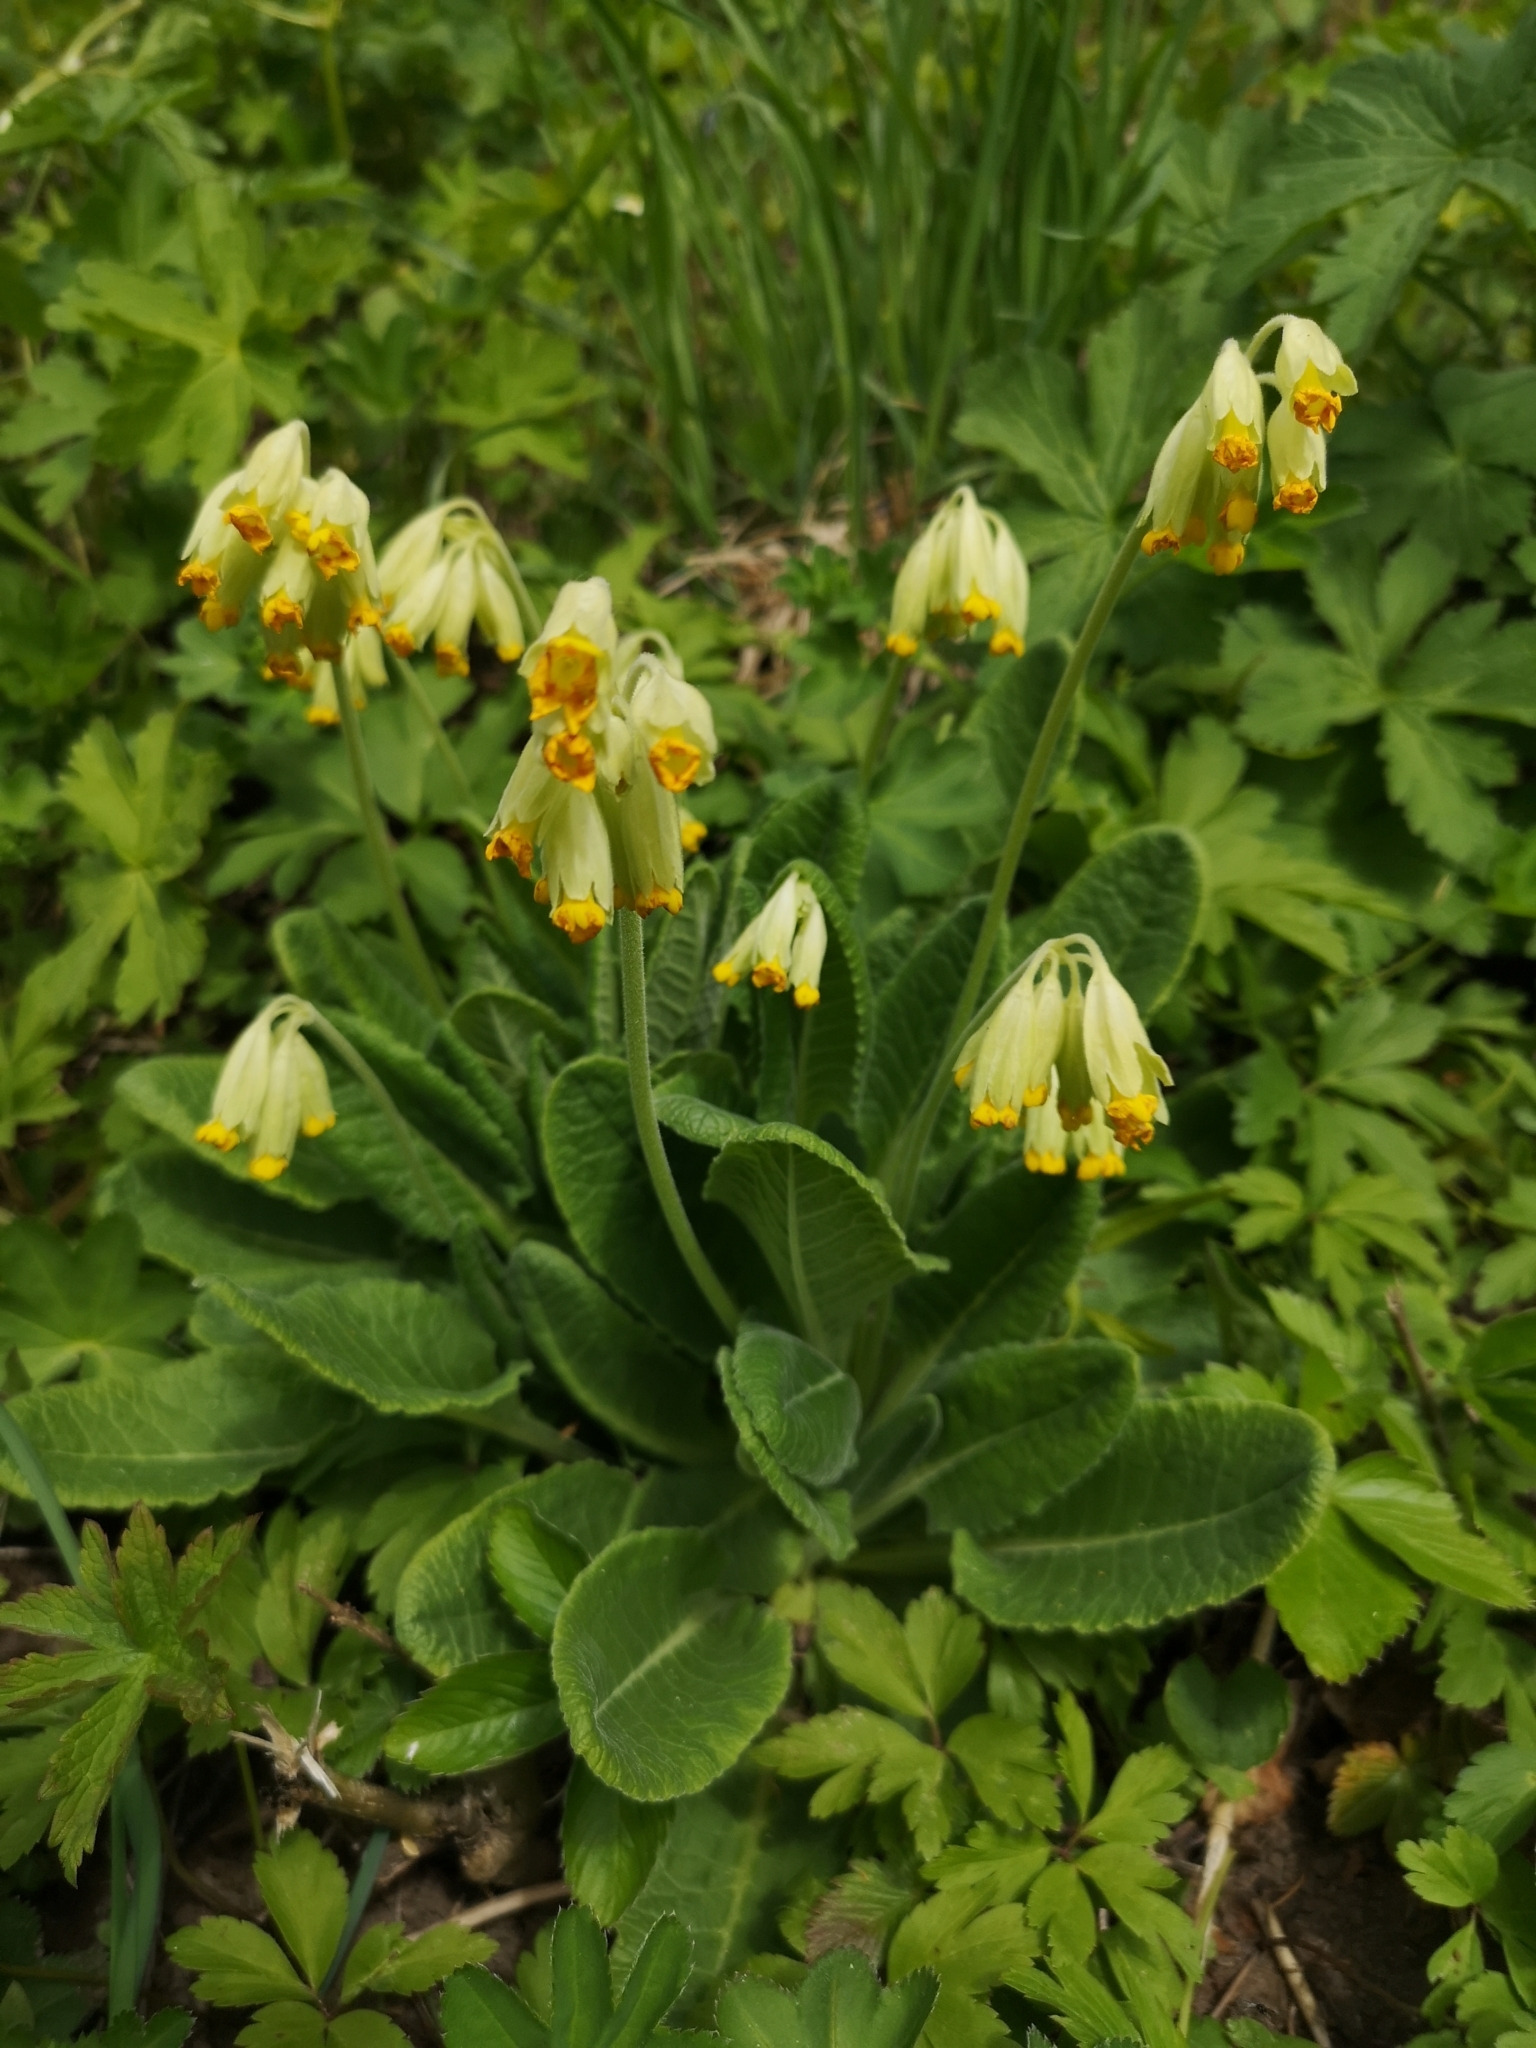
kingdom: Plantae
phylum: Tracheophyta
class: Magnoliopsida
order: Ericales
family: Primulaceae
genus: Primula
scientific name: Primula veris
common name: Cowslip
